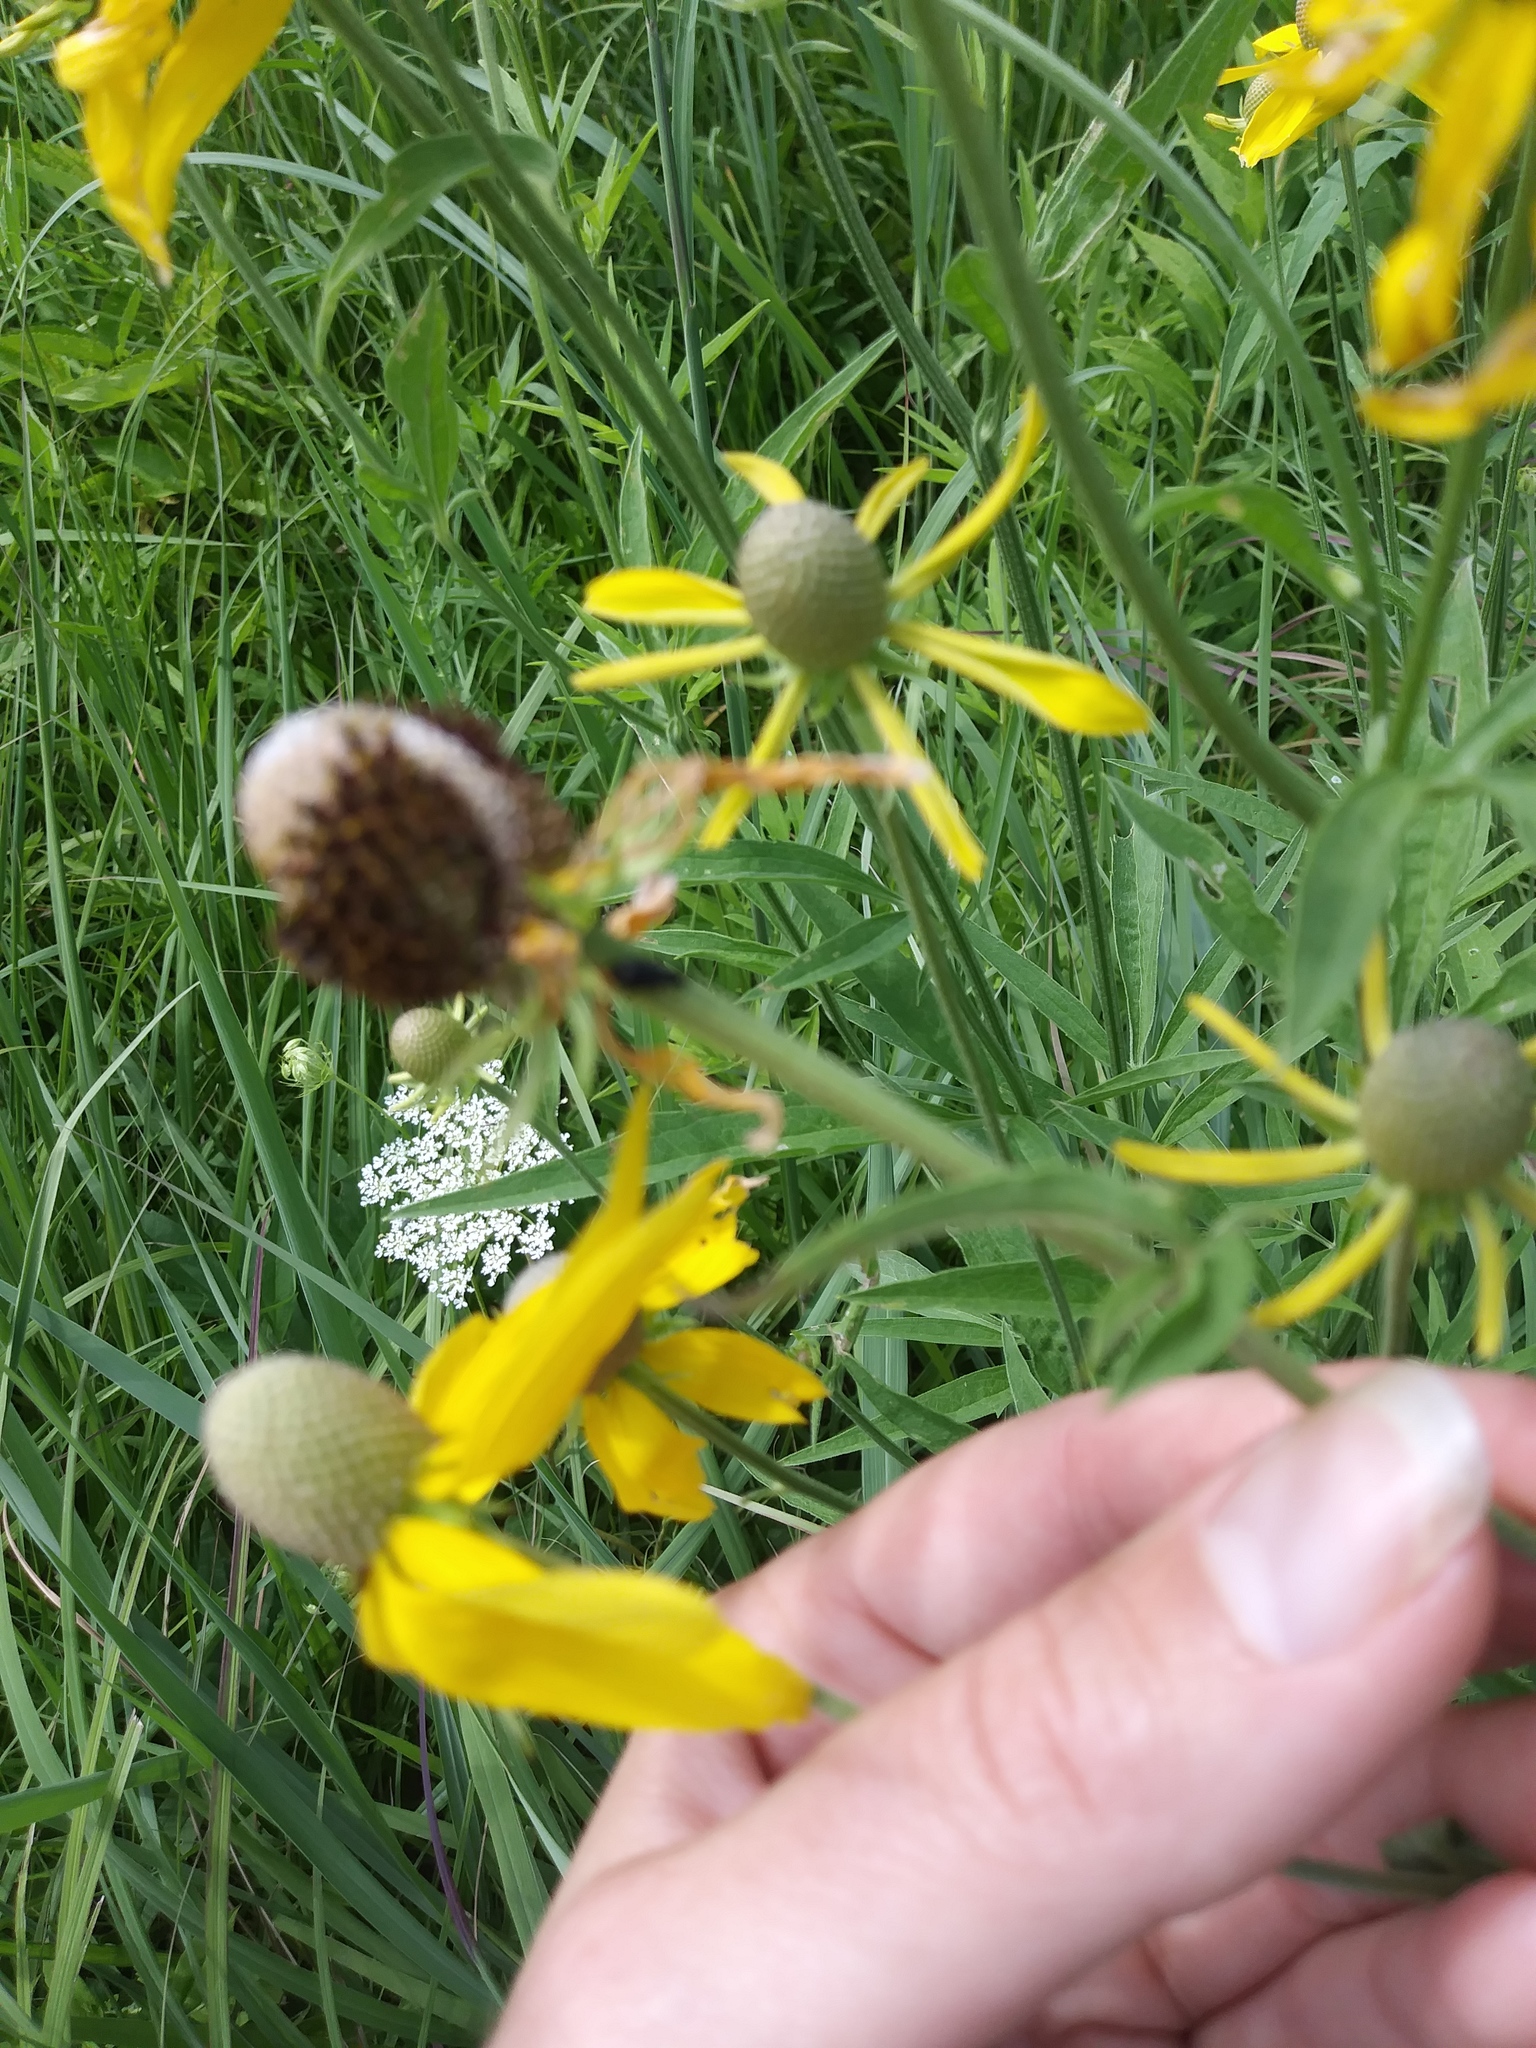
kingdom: Plantae
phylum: Tracheophyta
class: Magnoliopsida
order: Asterales
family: Asteraceae
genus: Ratibida
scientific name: Ratibida pinnata
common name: Drooping prairie-coneflower
